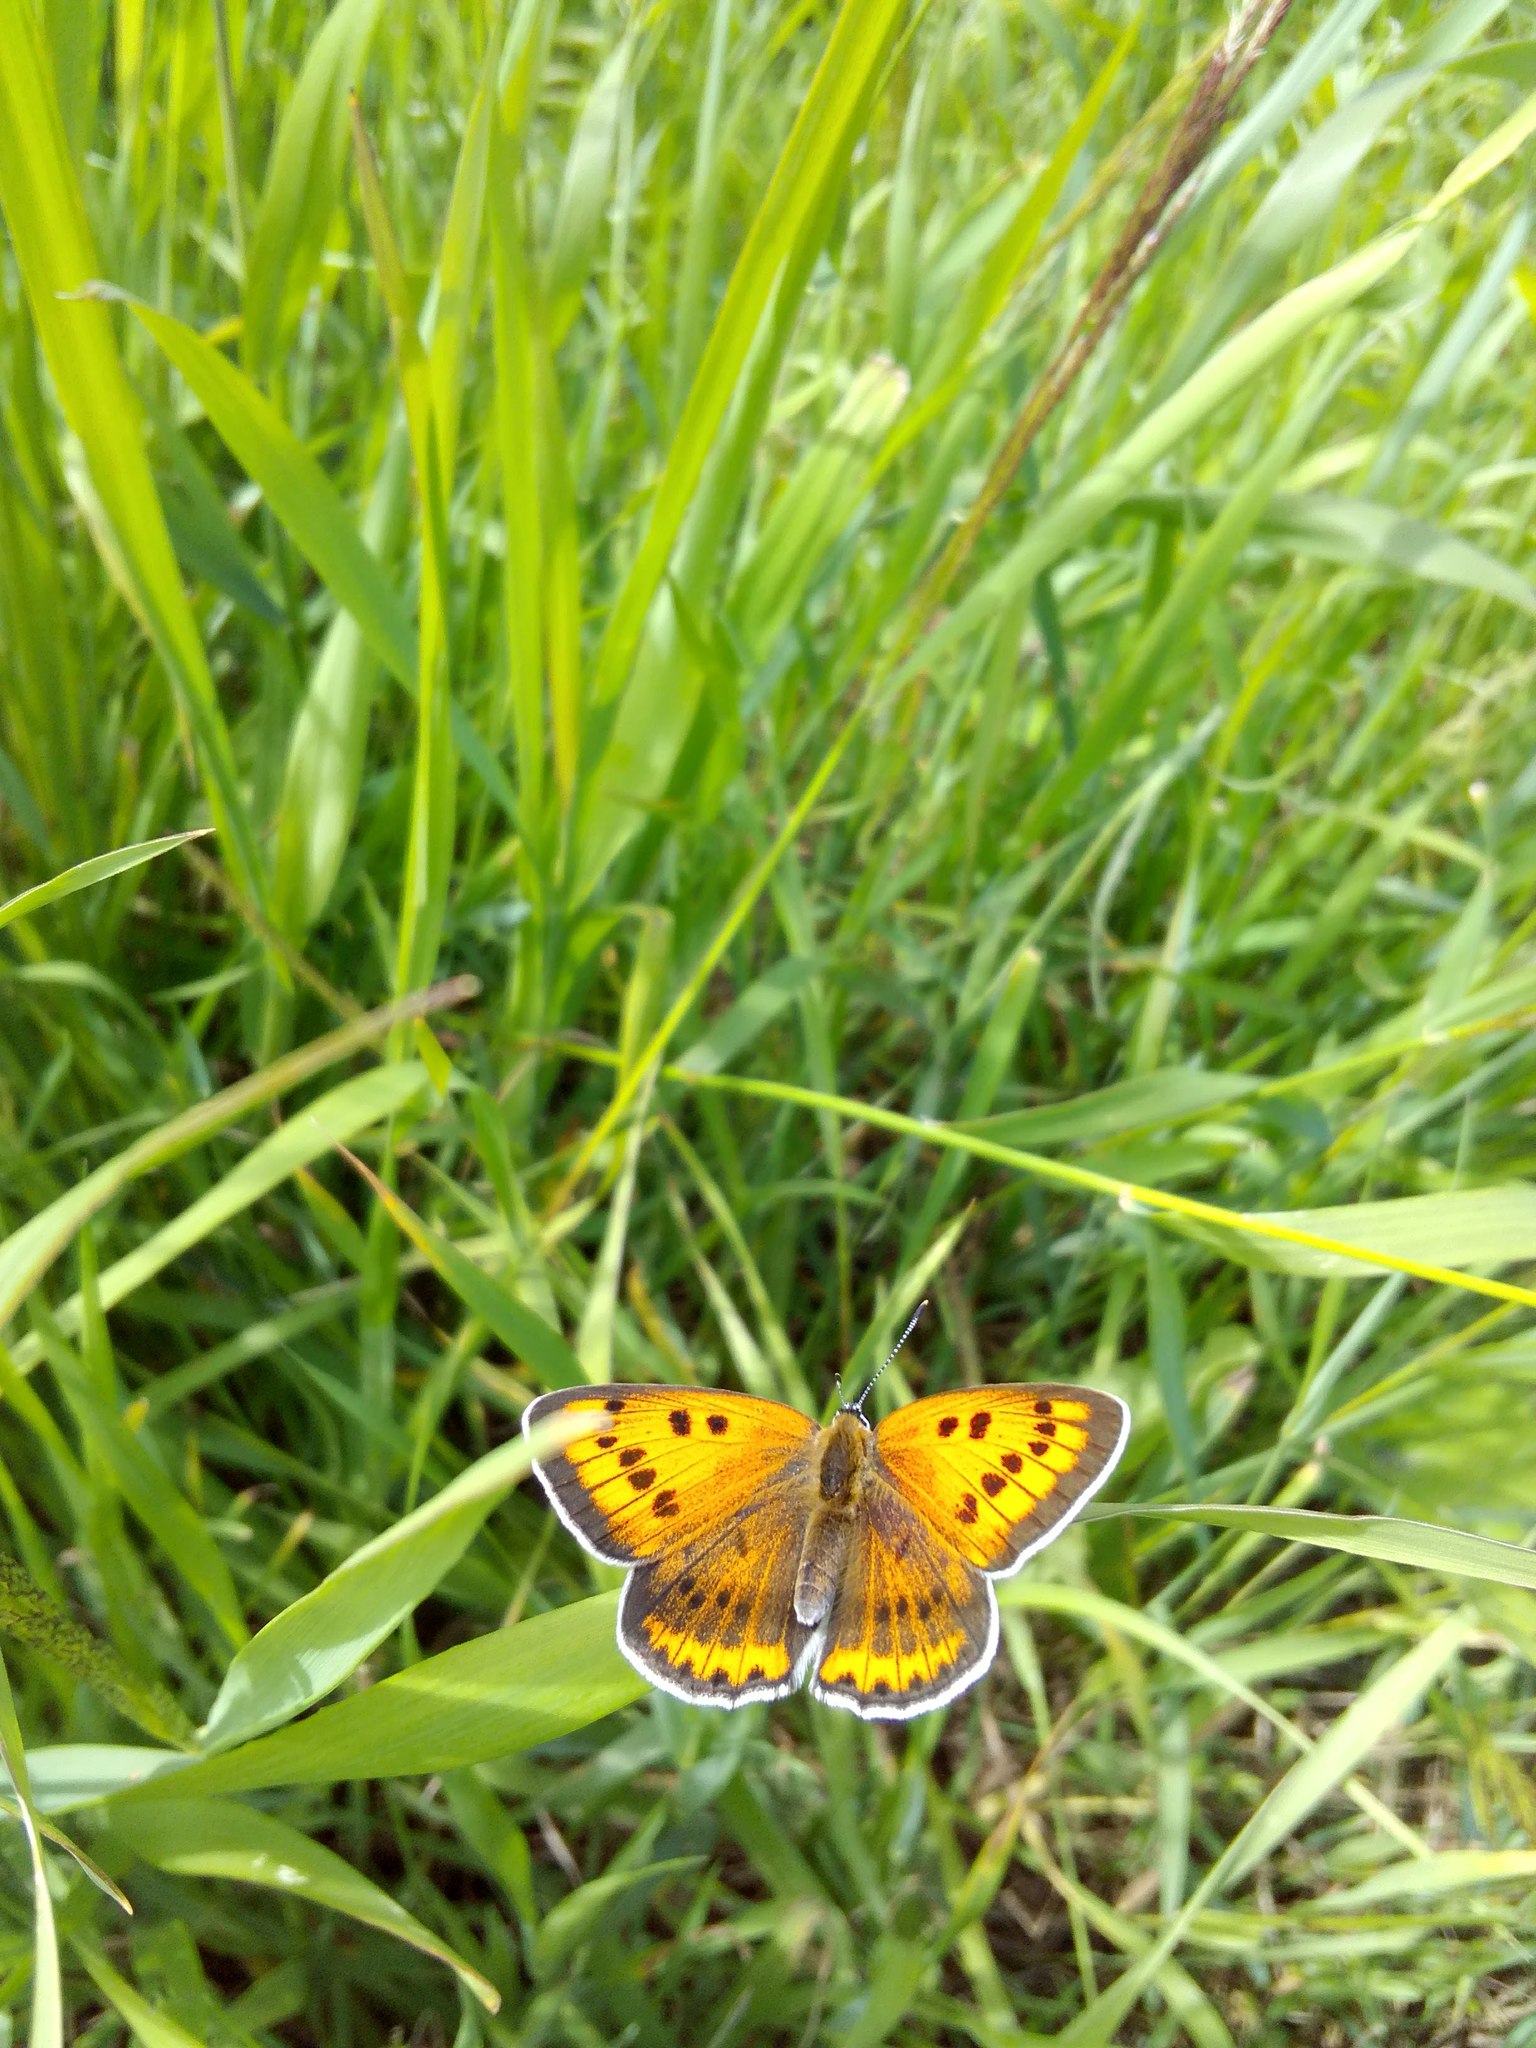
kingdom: Animalia
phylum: Arthropoda
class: Insecta
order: Lepidoptera
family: Lycaenidae
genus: Lycaena
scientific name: Lycaena dispar
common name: Large copper
